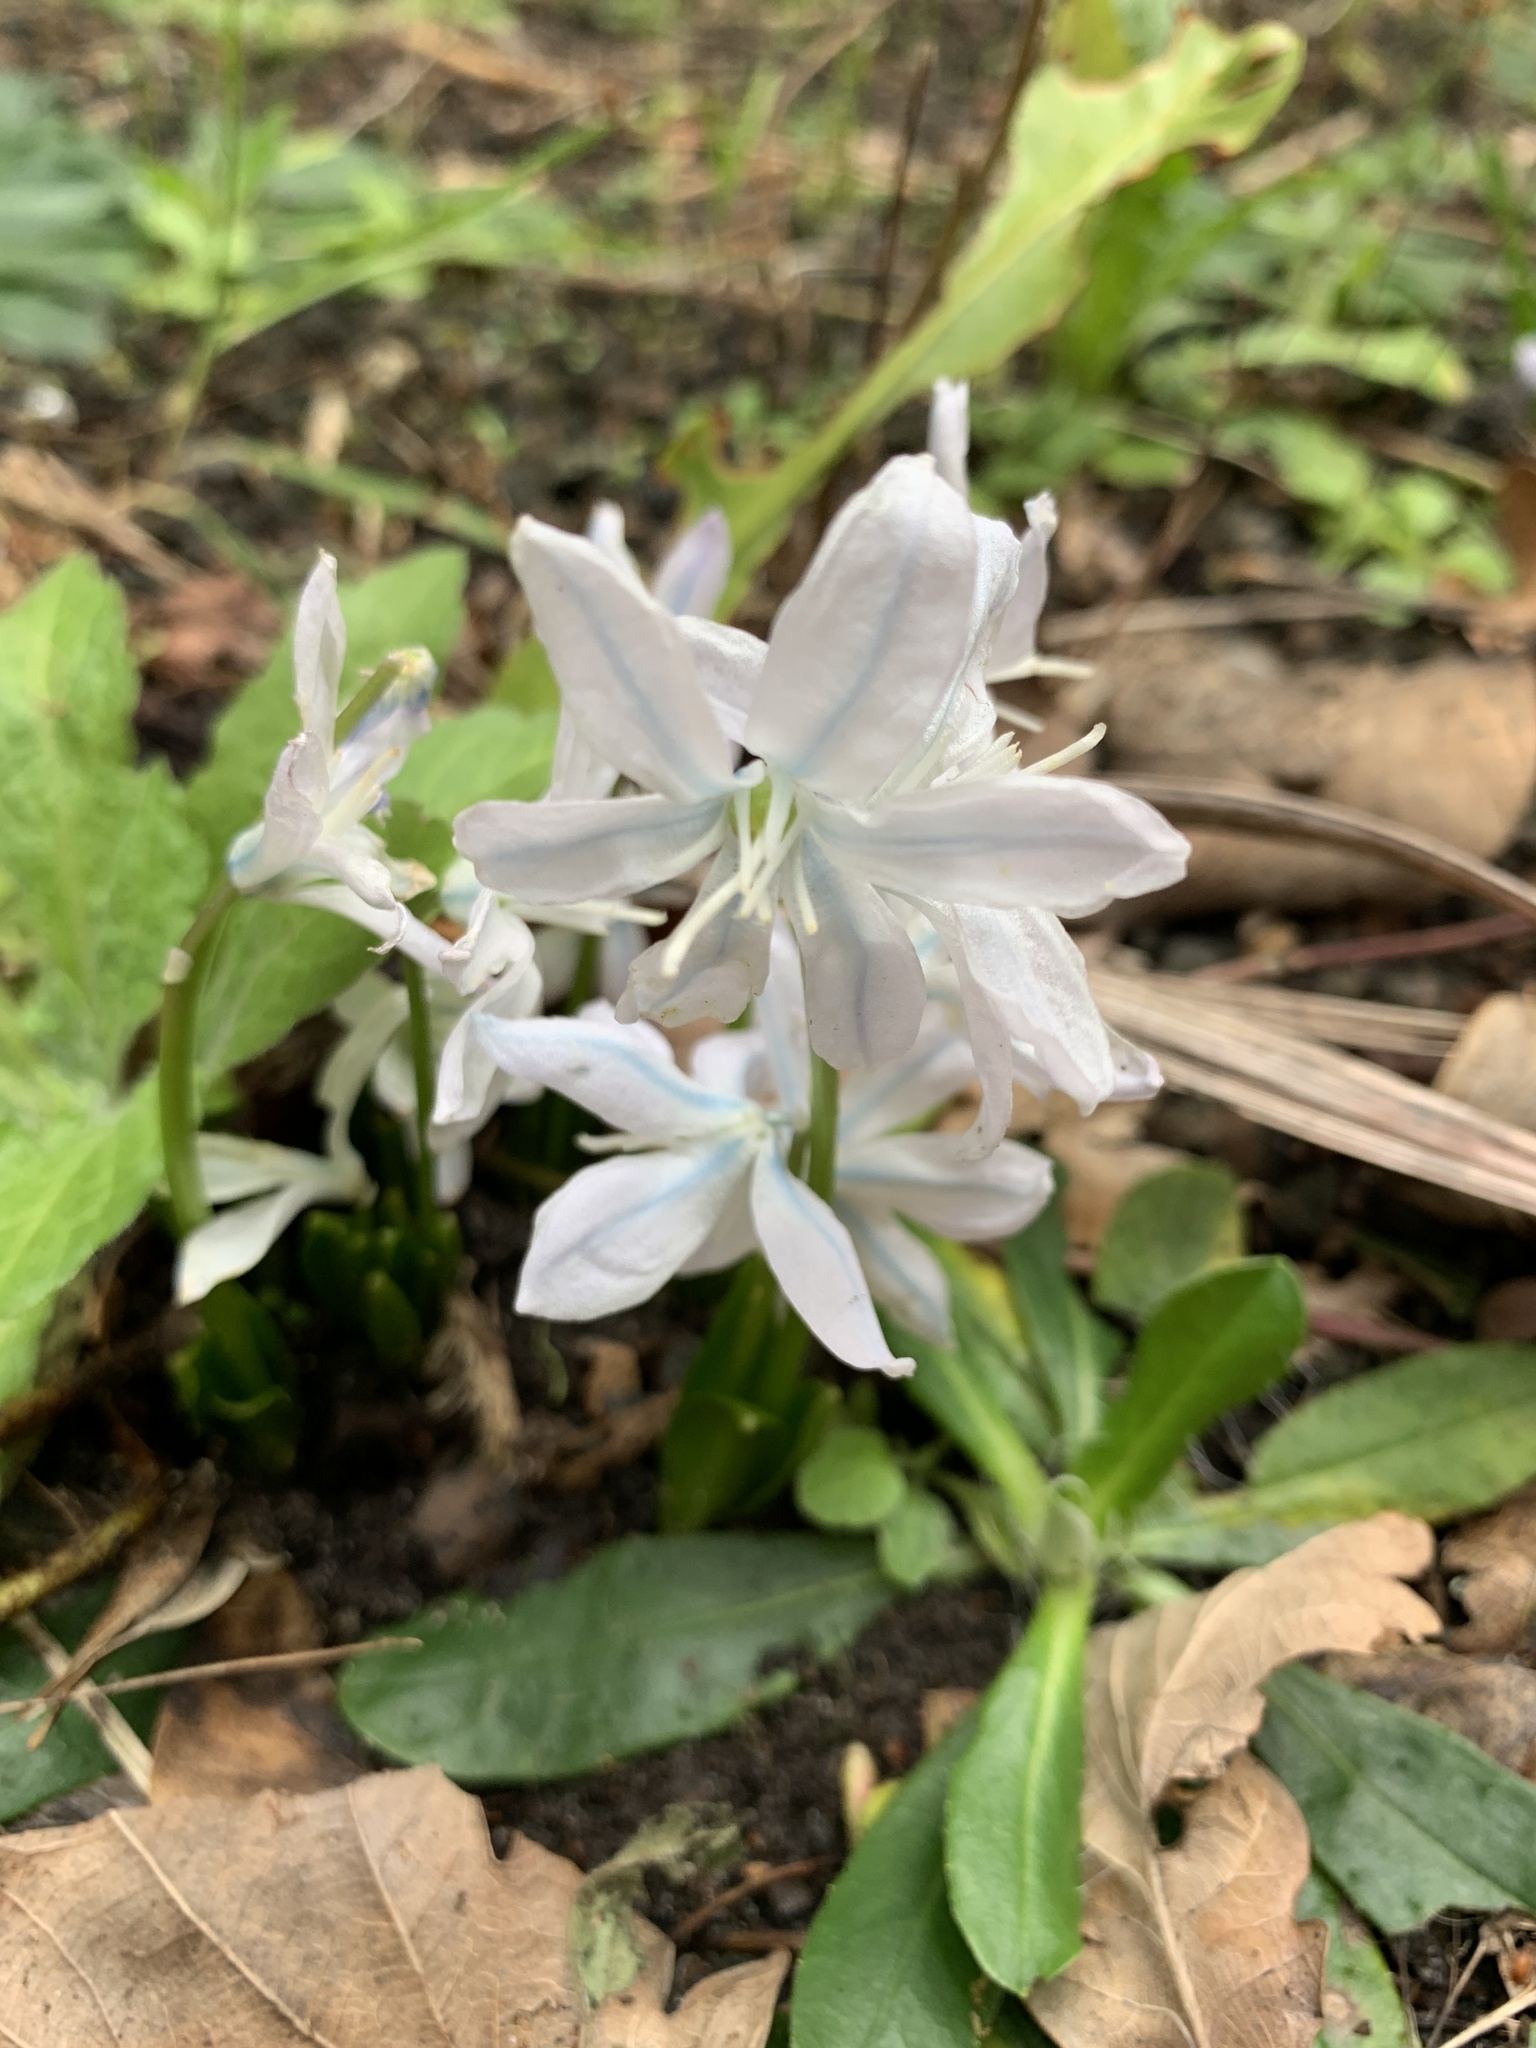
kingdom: Plantae
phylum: Tracheophyta
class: Liliopsida
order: Asparagales
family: Asparagaceae
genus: Scilla
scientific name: Scilla mischtschenkoana
